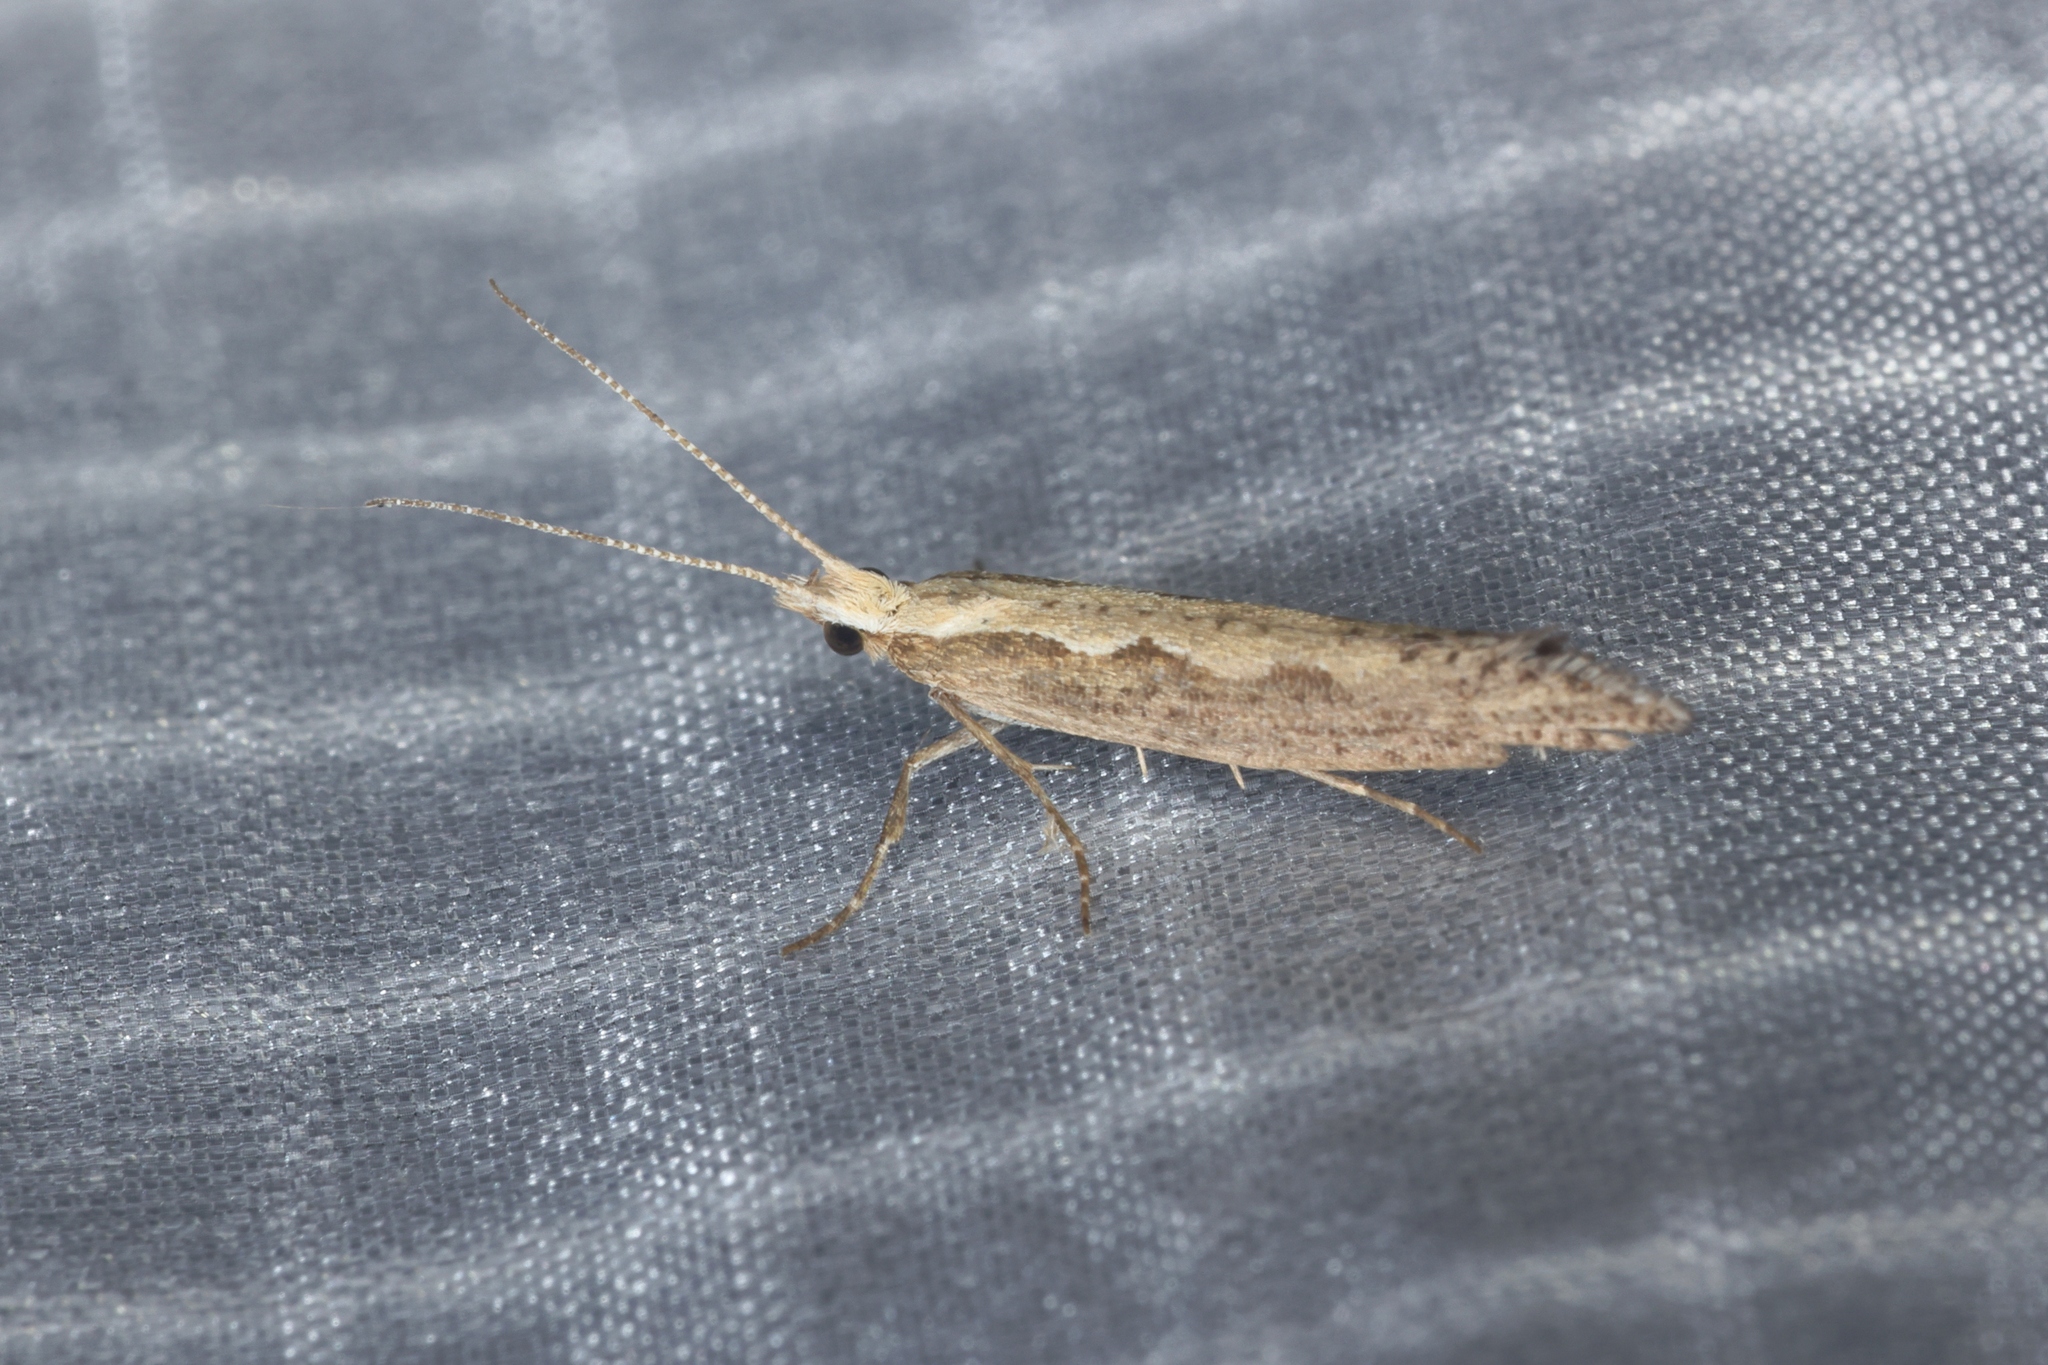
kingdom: Animalia
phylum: Arthropoda
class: Insecta
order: Lepidoptera
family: Plutellidae
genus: Plutella
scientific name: Plutella xylostella
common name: Diamond-back moth
